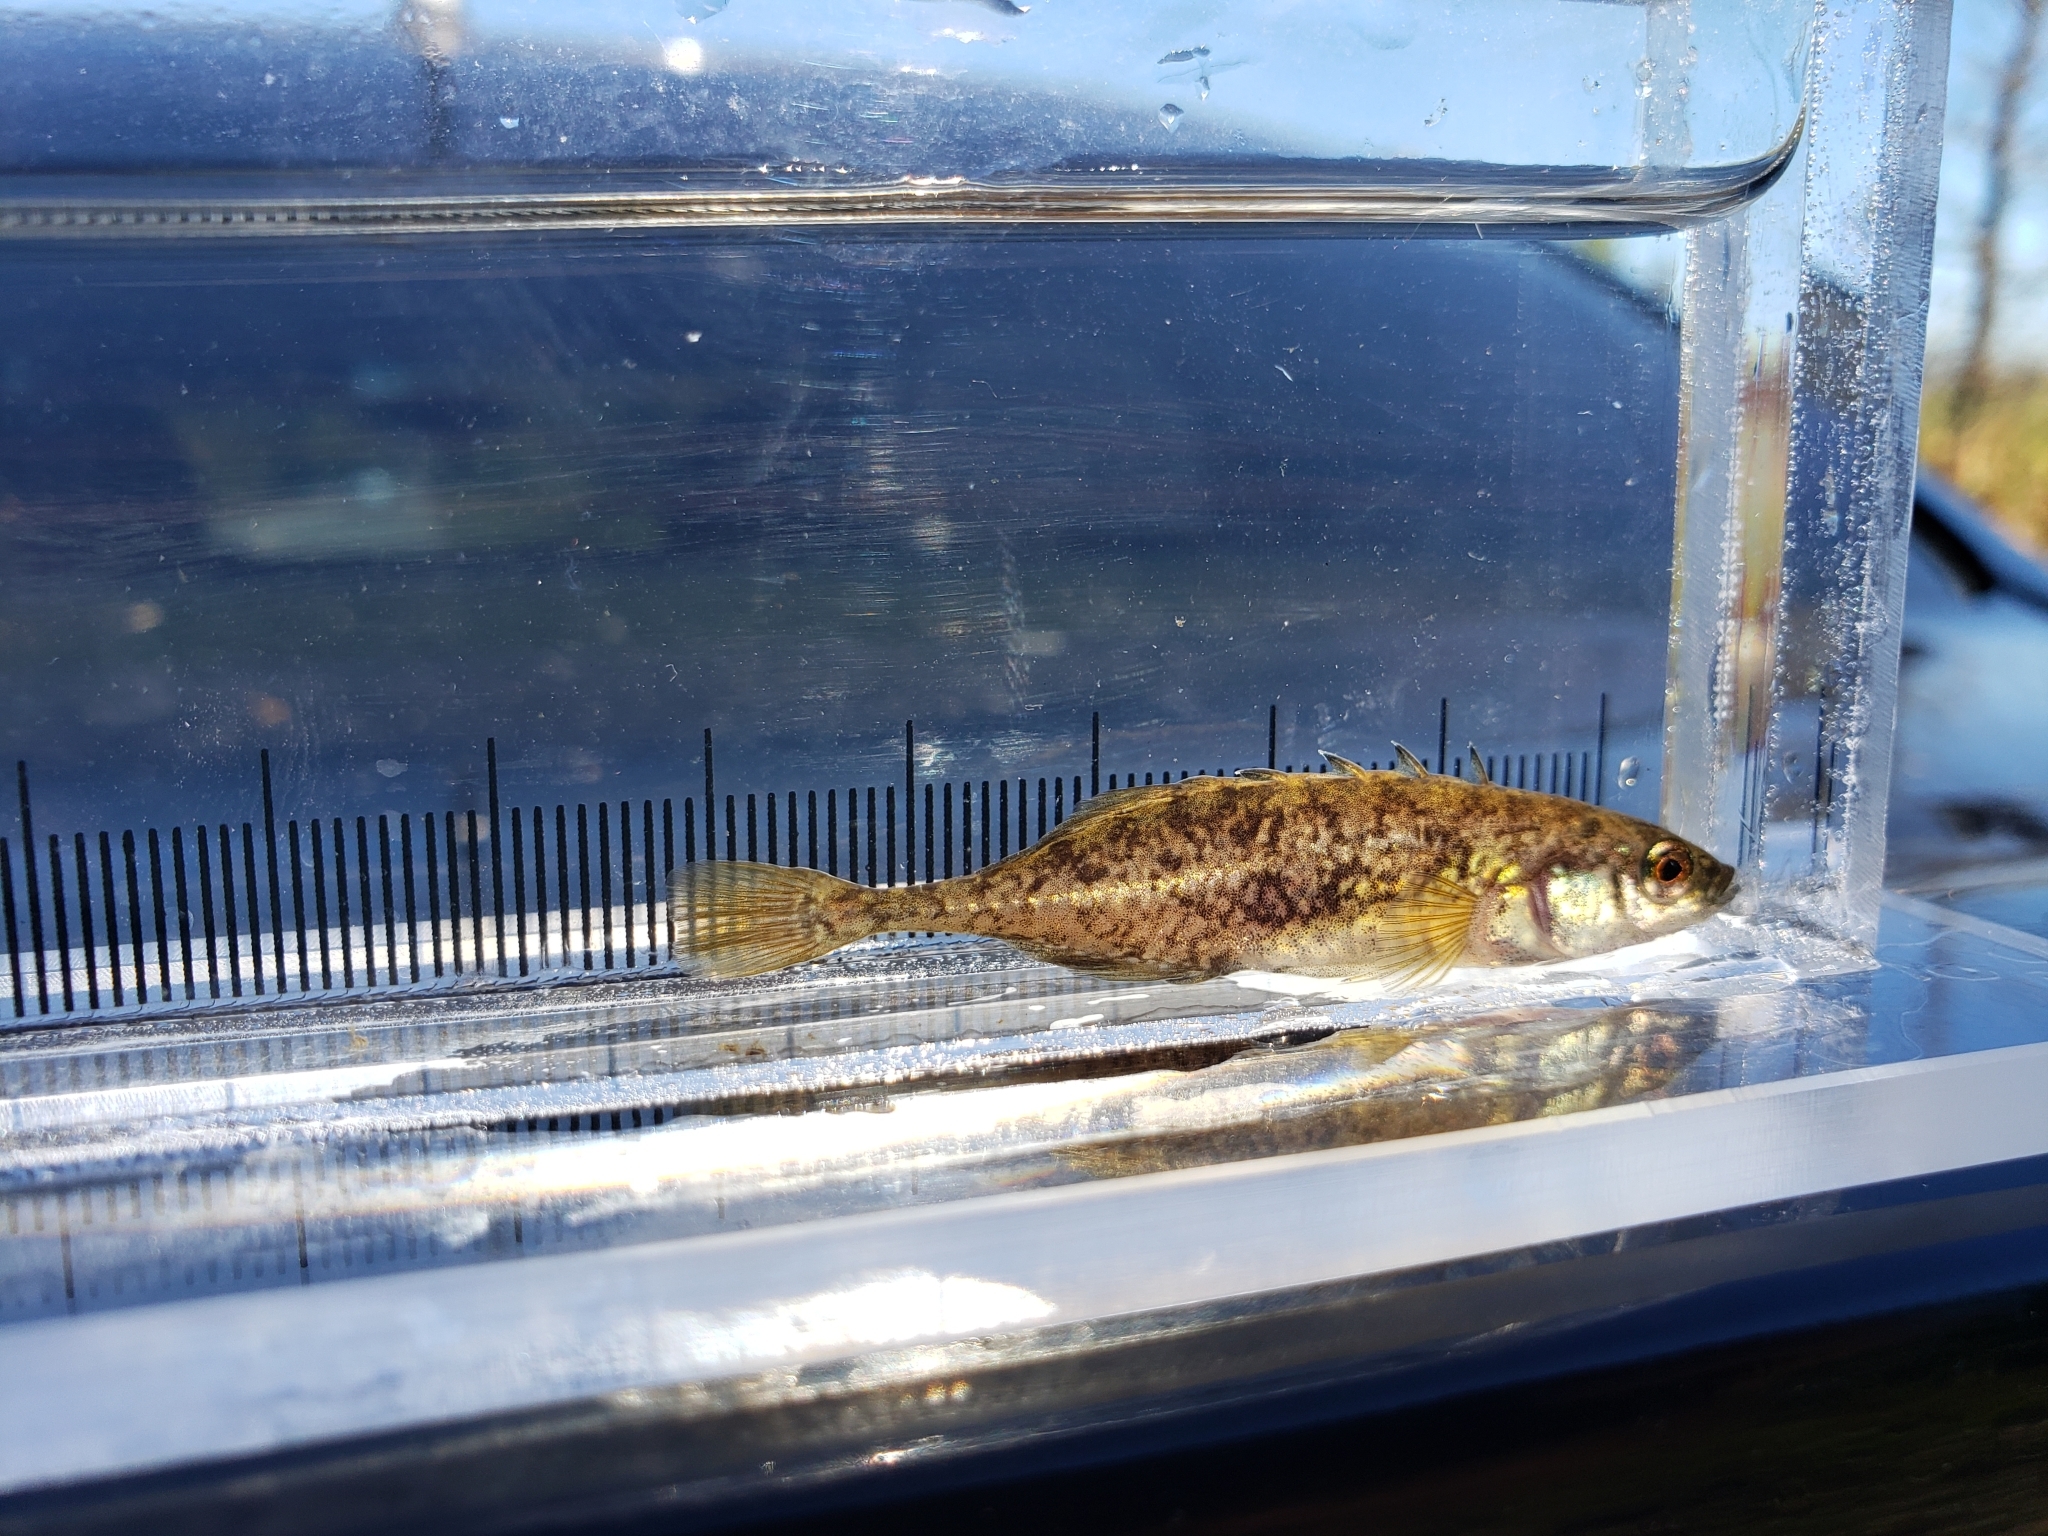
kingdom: Animalia
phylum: Chordata
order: Gasterosteiformes
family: Gasterosteidae
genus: Culaea
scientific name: Culaea inconstans
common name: Brook stickleback
